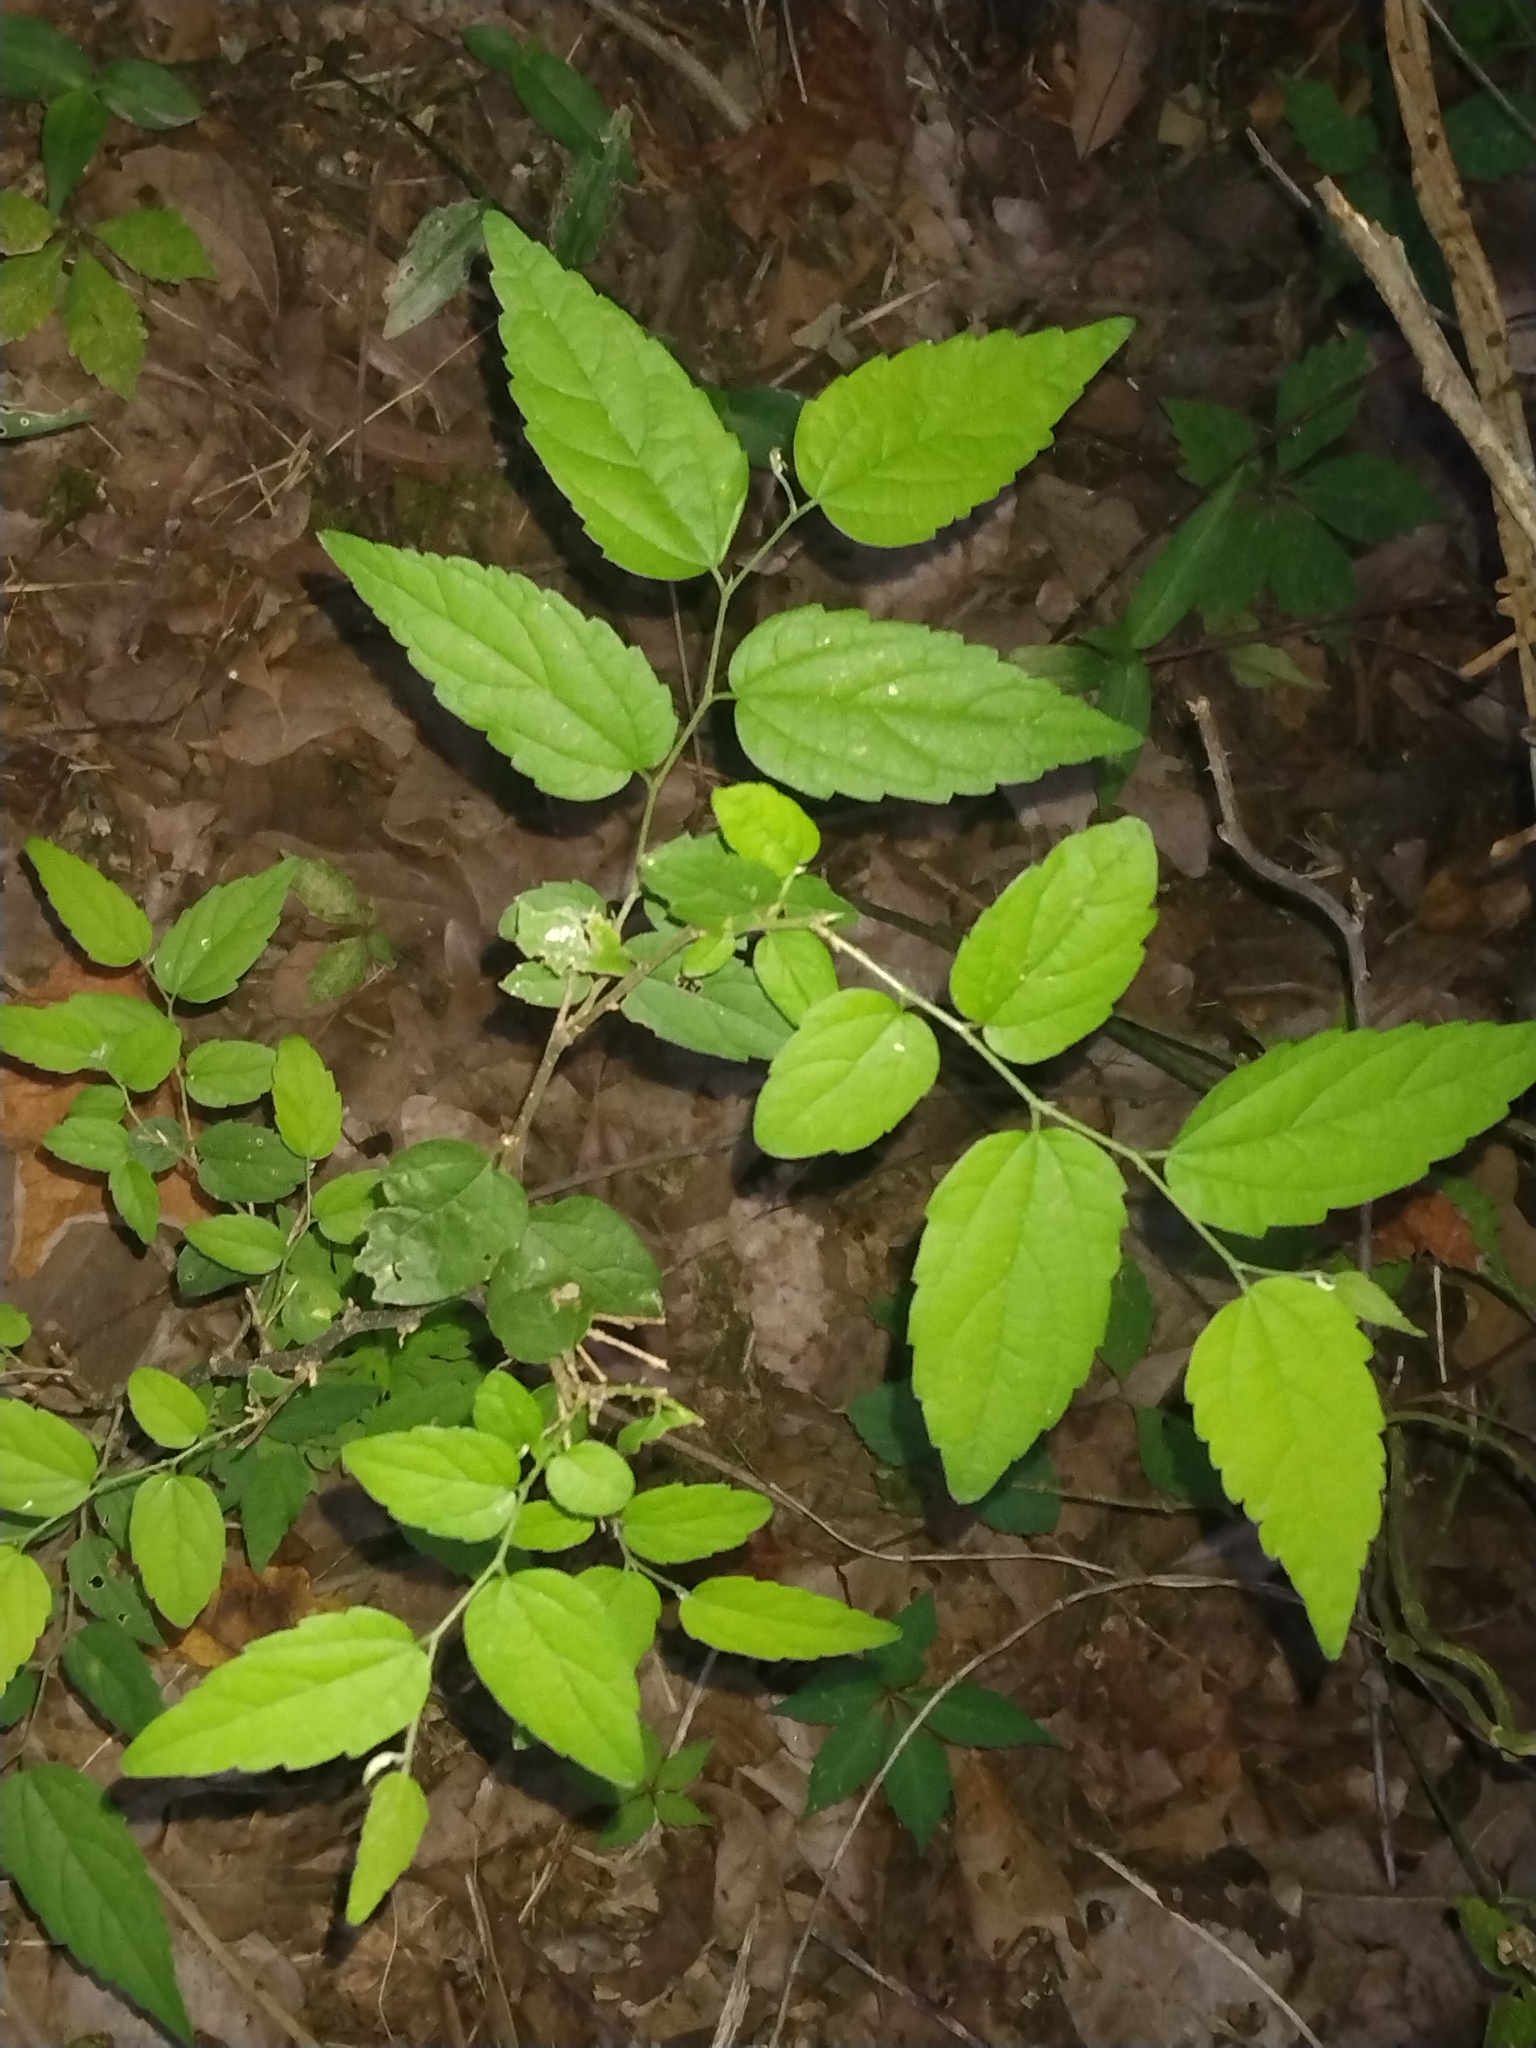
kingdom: Plantae
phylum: Tracheophyta
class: Magnoliopsida
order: Rosales
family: Cannabaceae
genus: Celtis
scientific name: Celtis laevigata
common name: Sugarberry
